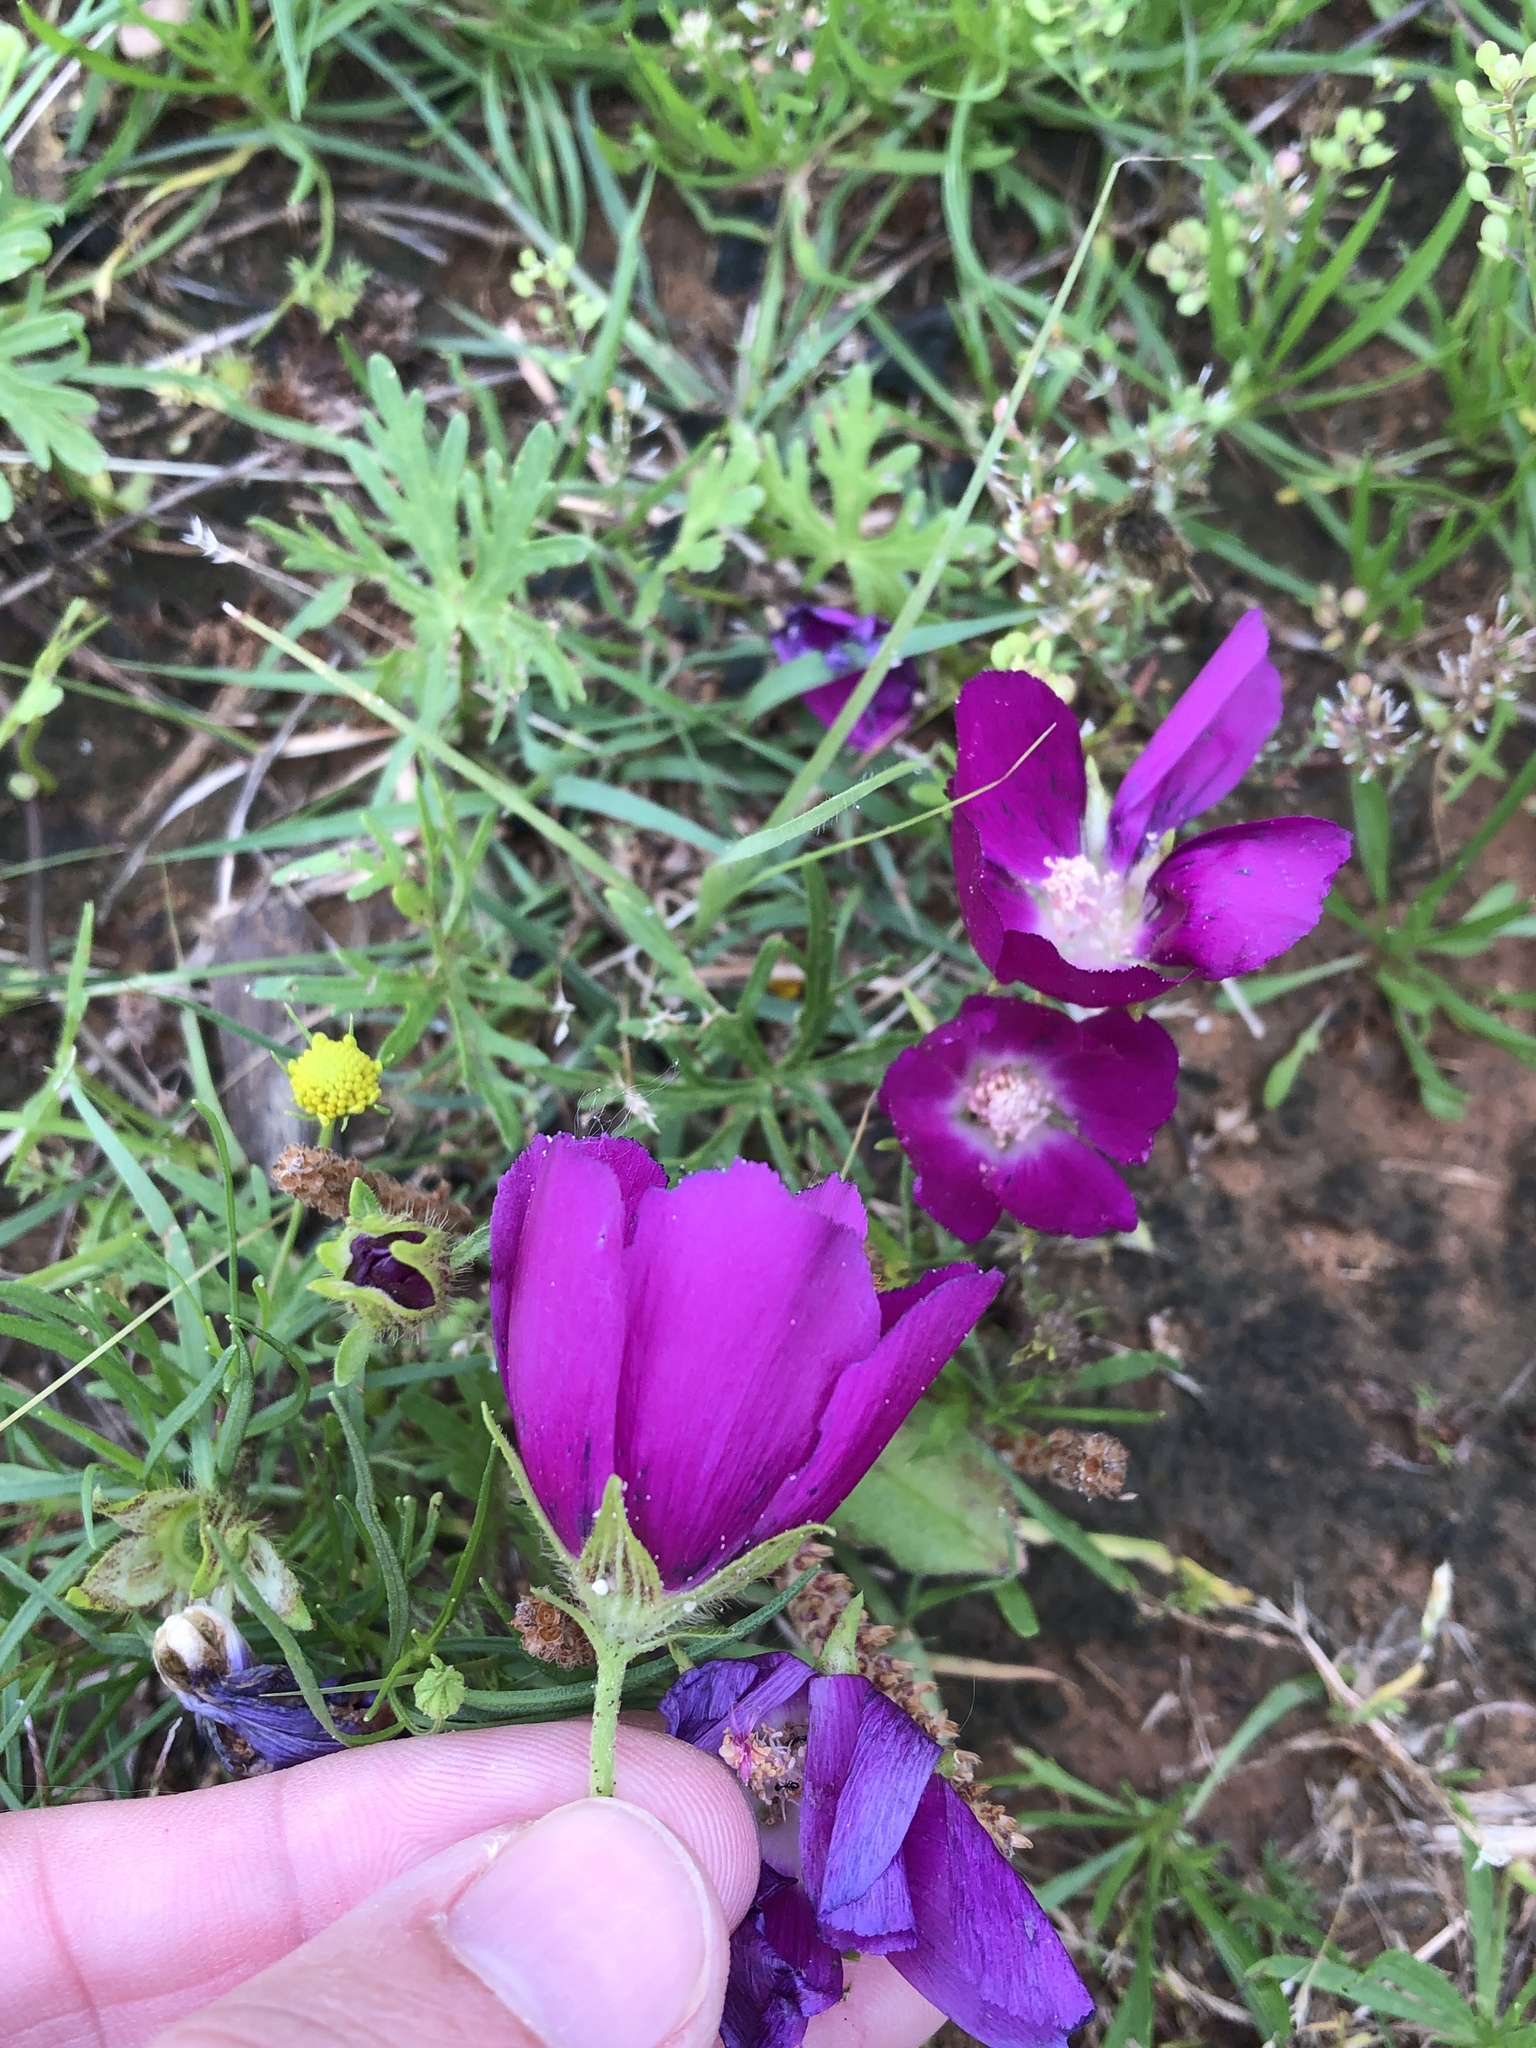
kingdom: Plantae
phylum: Tracheophyta
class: Magnoliopsida
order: Malvales
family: Malvaceae
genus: Callirhoe
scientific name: Callirhoe involucrata
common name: Purple poppy-mallow
